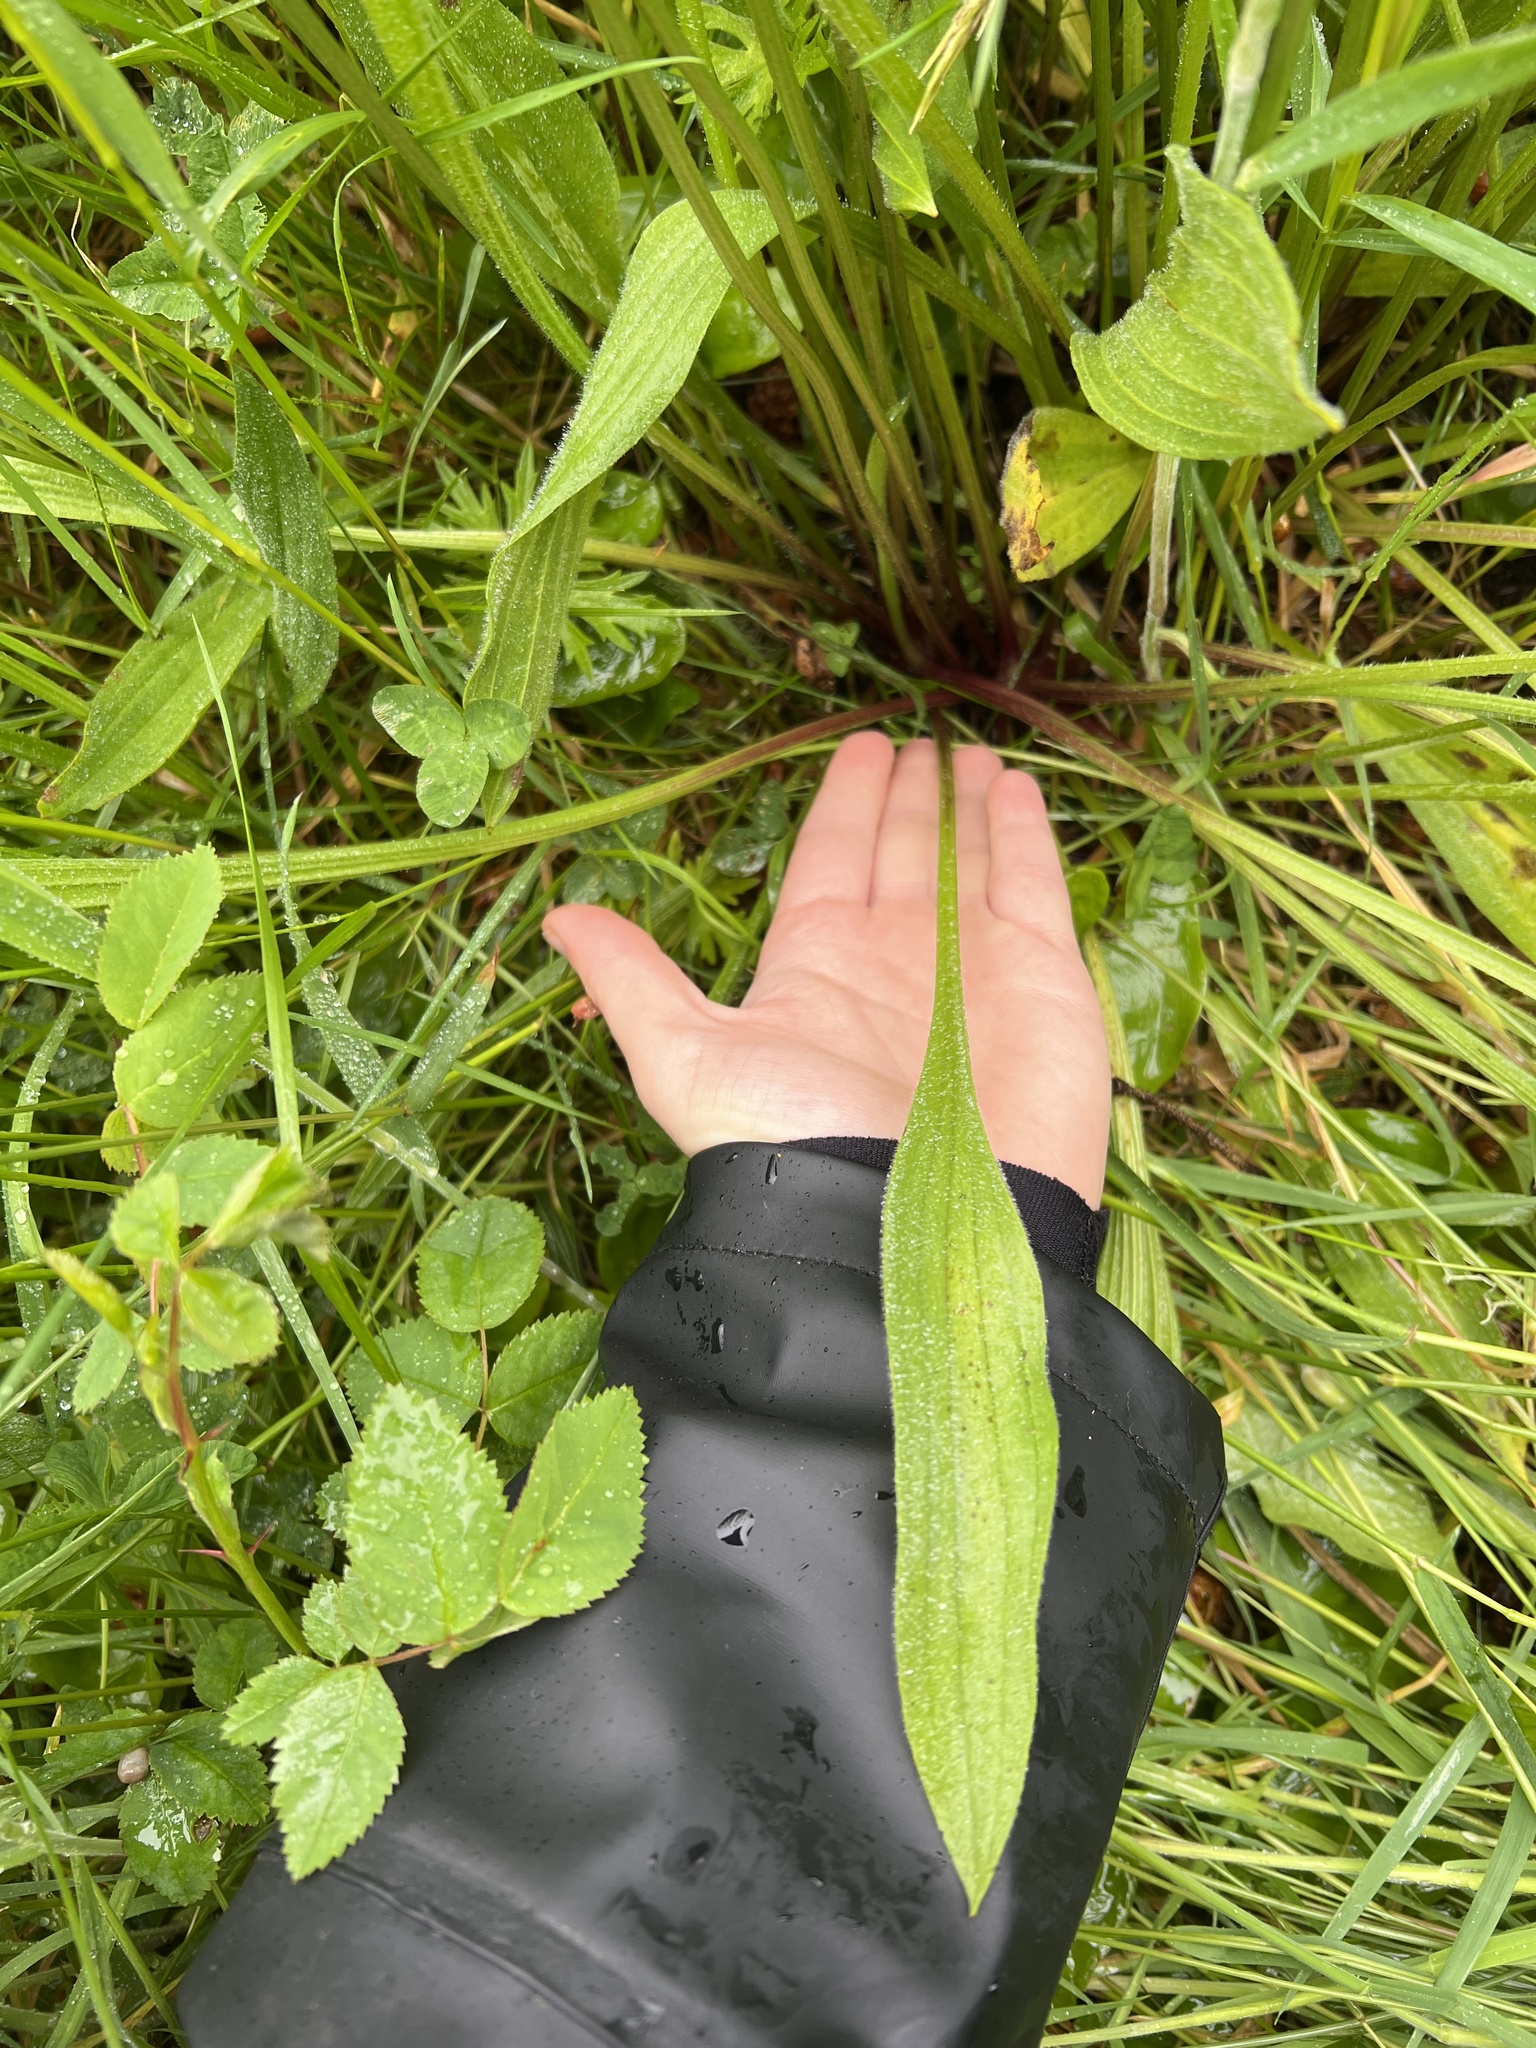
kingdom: Plantae
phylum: Tracheophyta
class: Magnoliopsida
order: Lamiales
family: Plantaginaceae
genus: Plantago
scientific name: Plantago lanceolata
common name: Ribwort plantain
